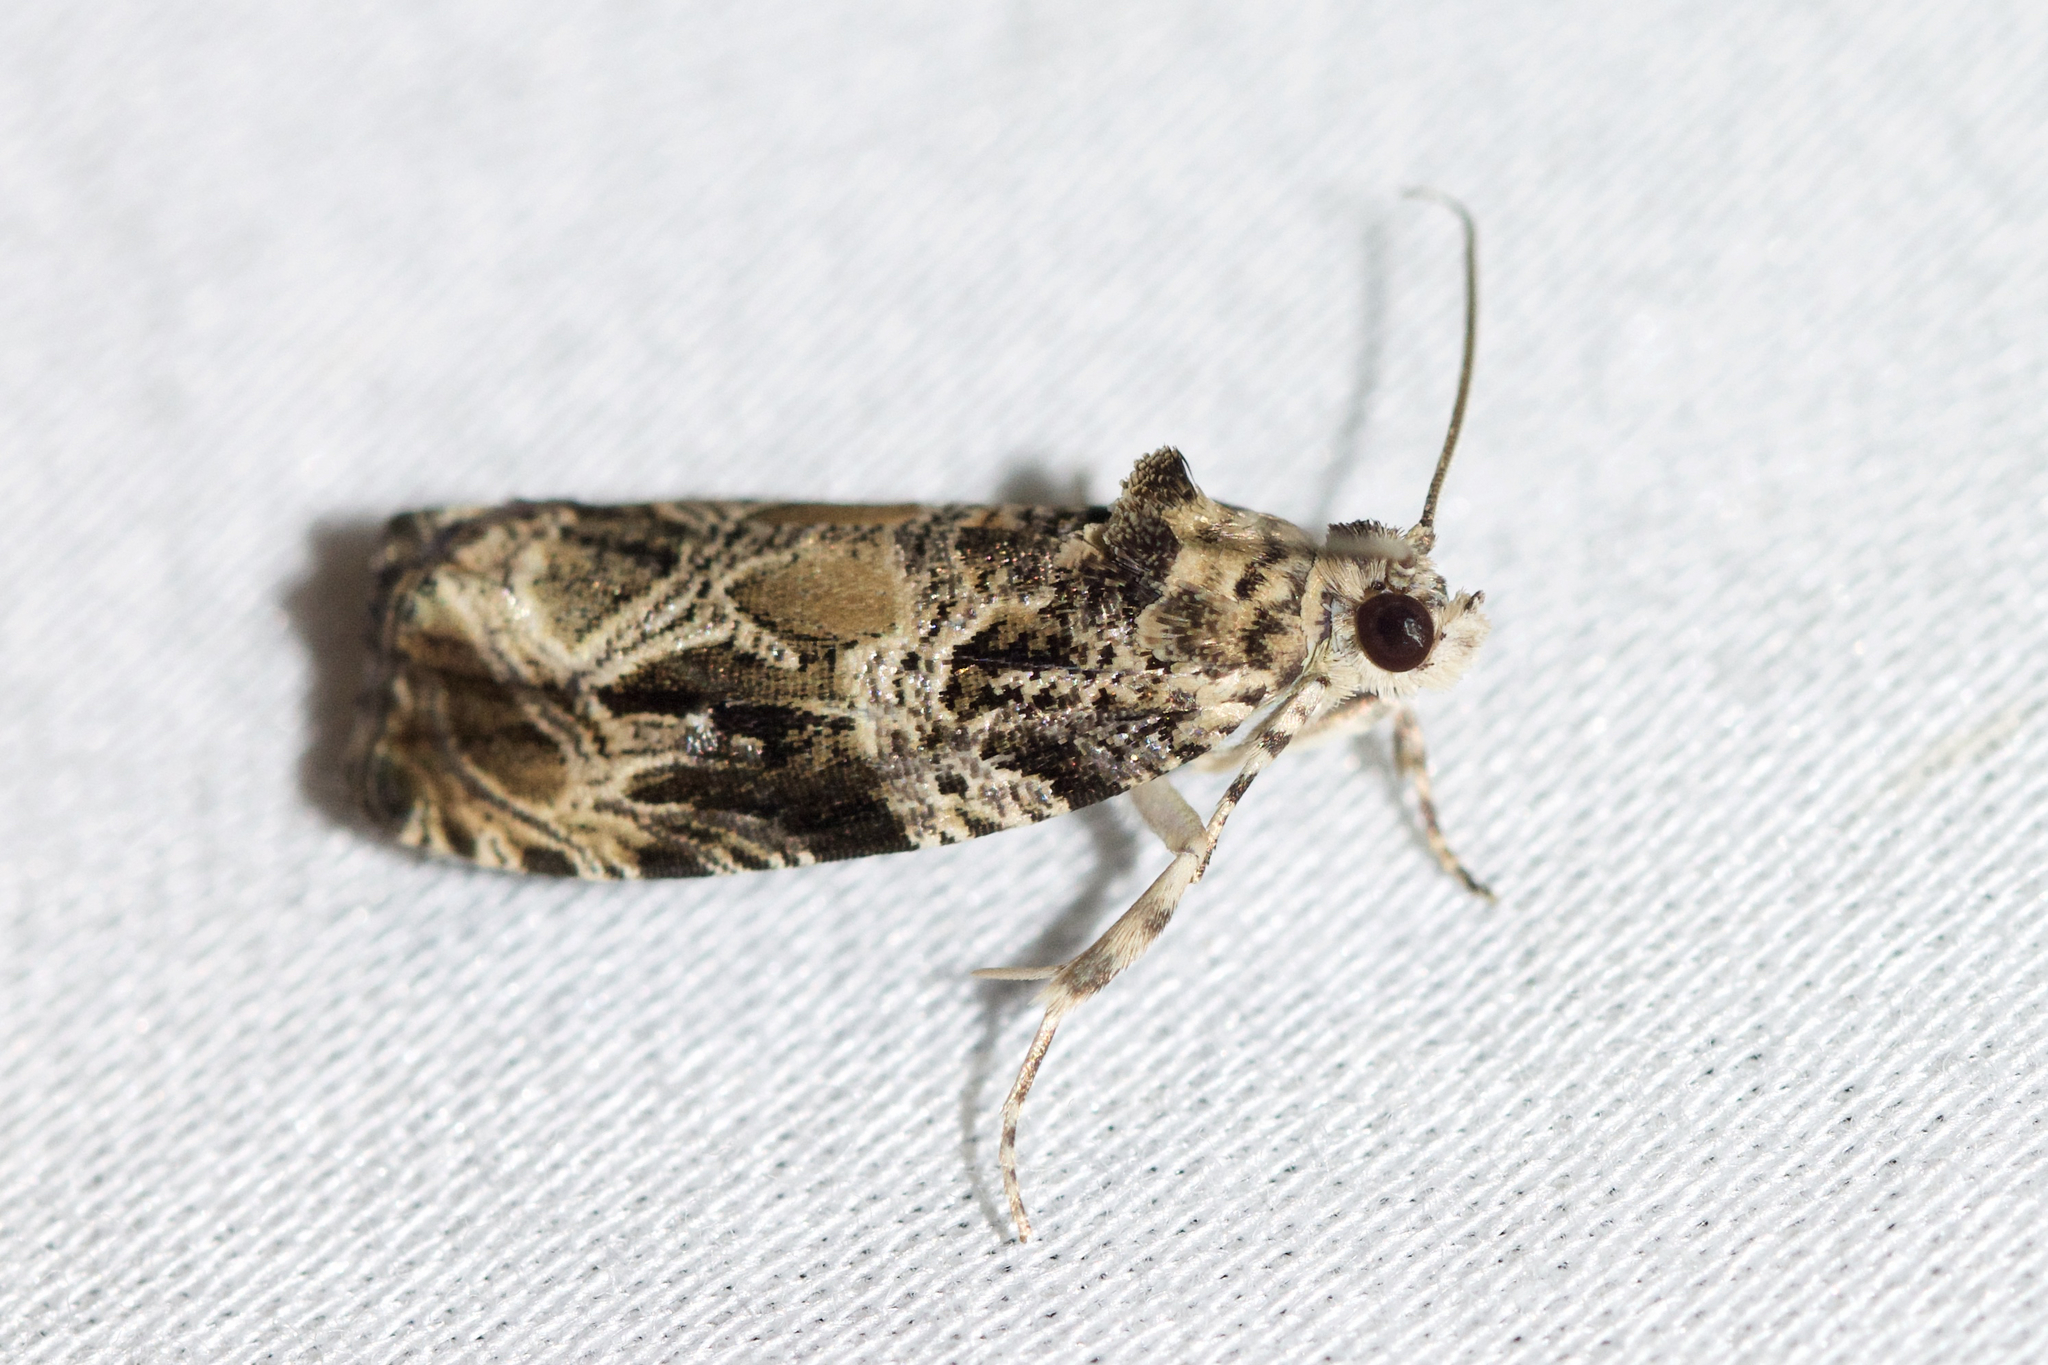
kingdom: Animalia
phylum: Arthropoda
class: Insecta
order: Lepidoptera
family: Tortricidae
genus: Olethreutes
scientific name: Olethreutes atrodentana
